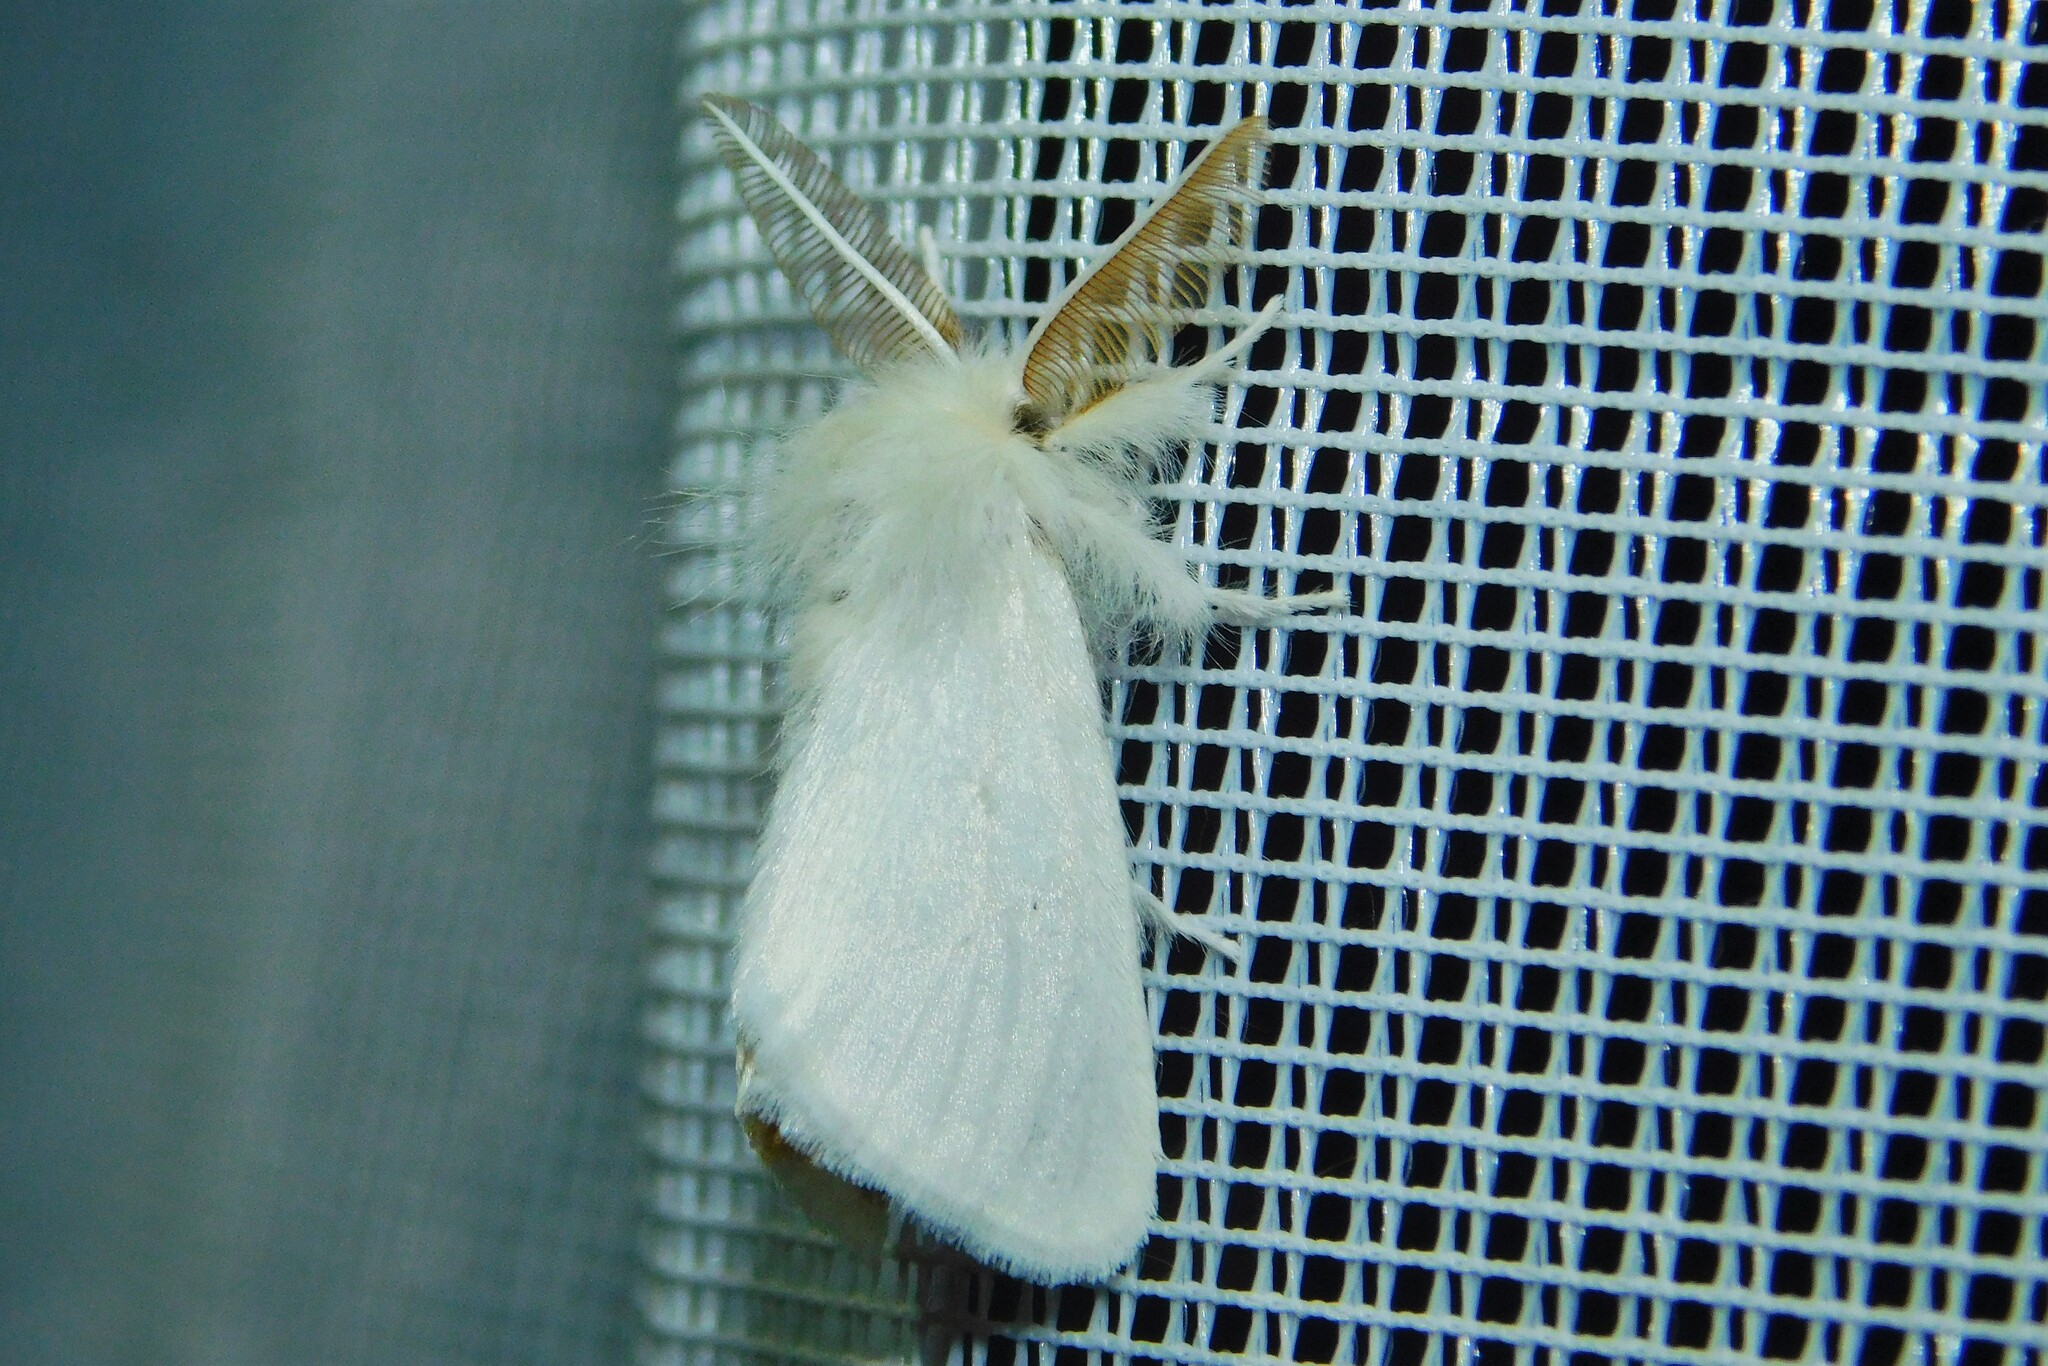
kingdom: Animalia
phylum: Arthropoda
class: Insecta
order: Lepidoptera
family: Erebidae
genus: Euproctis
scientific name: Euproctis chrysorrhoea
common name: Brown-tail
